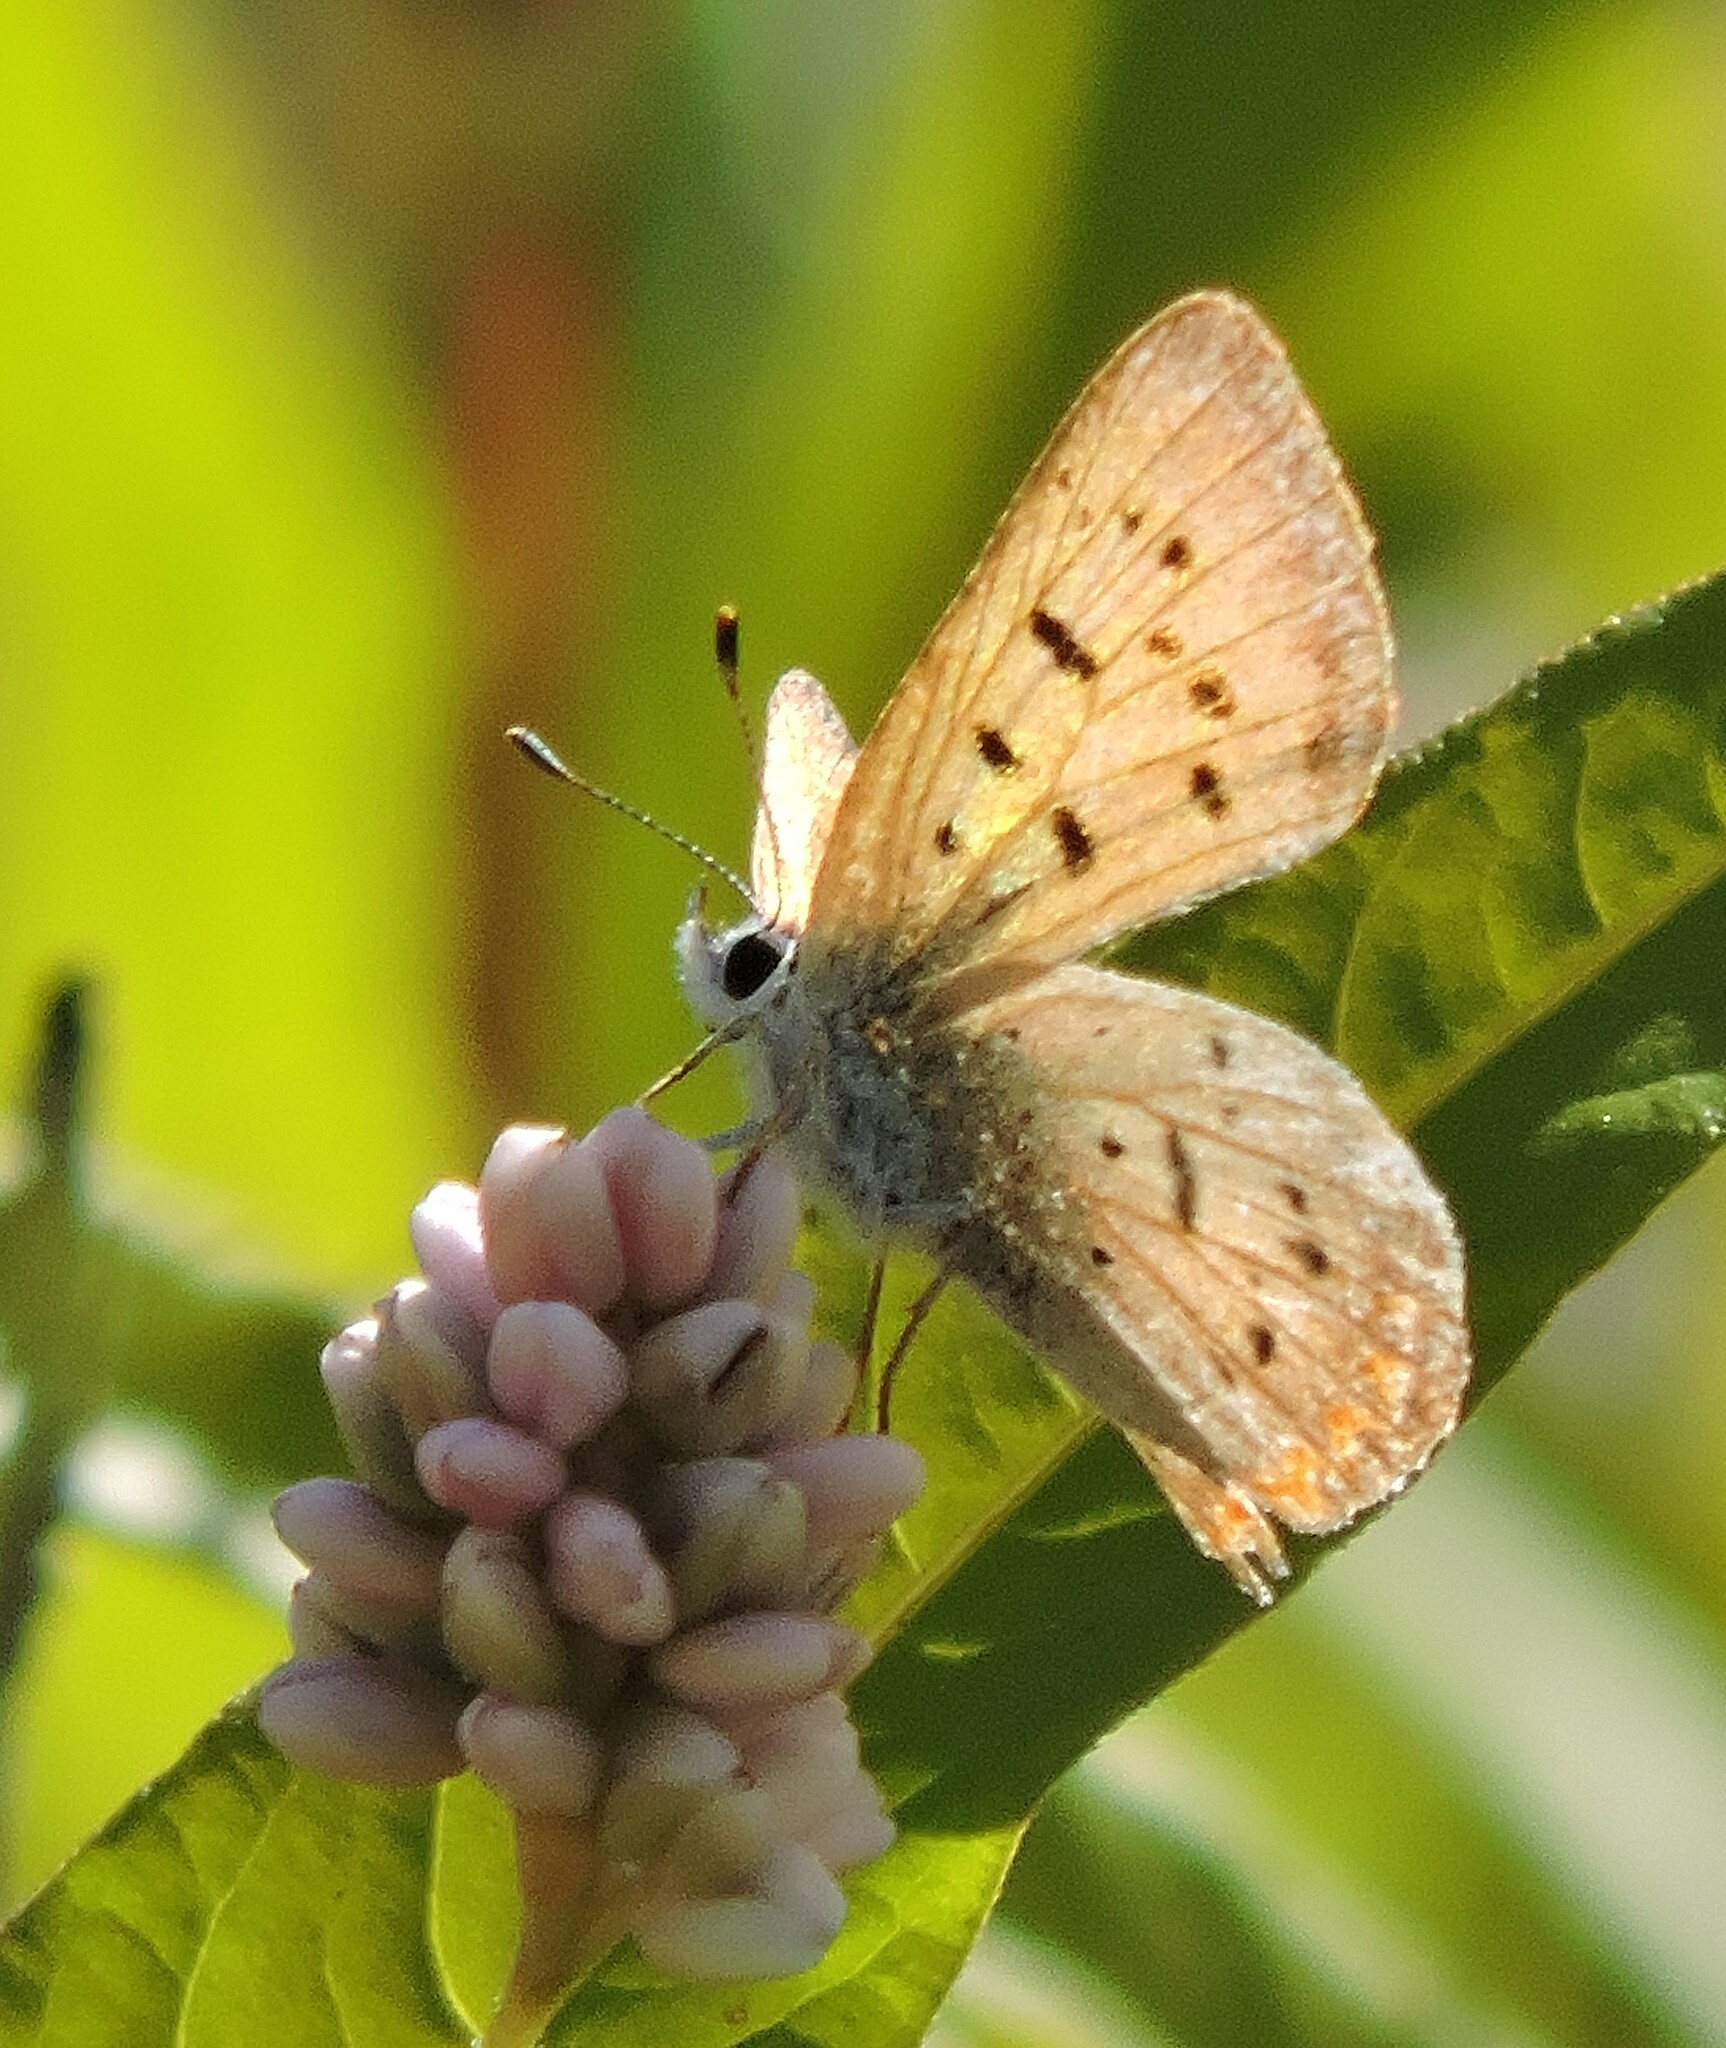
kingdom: Animalia
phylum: Arthropoda
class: Insecta
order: Lepidoptera
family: Lycaenidae
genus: Tharsalea
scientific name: Tharsalea helloides
